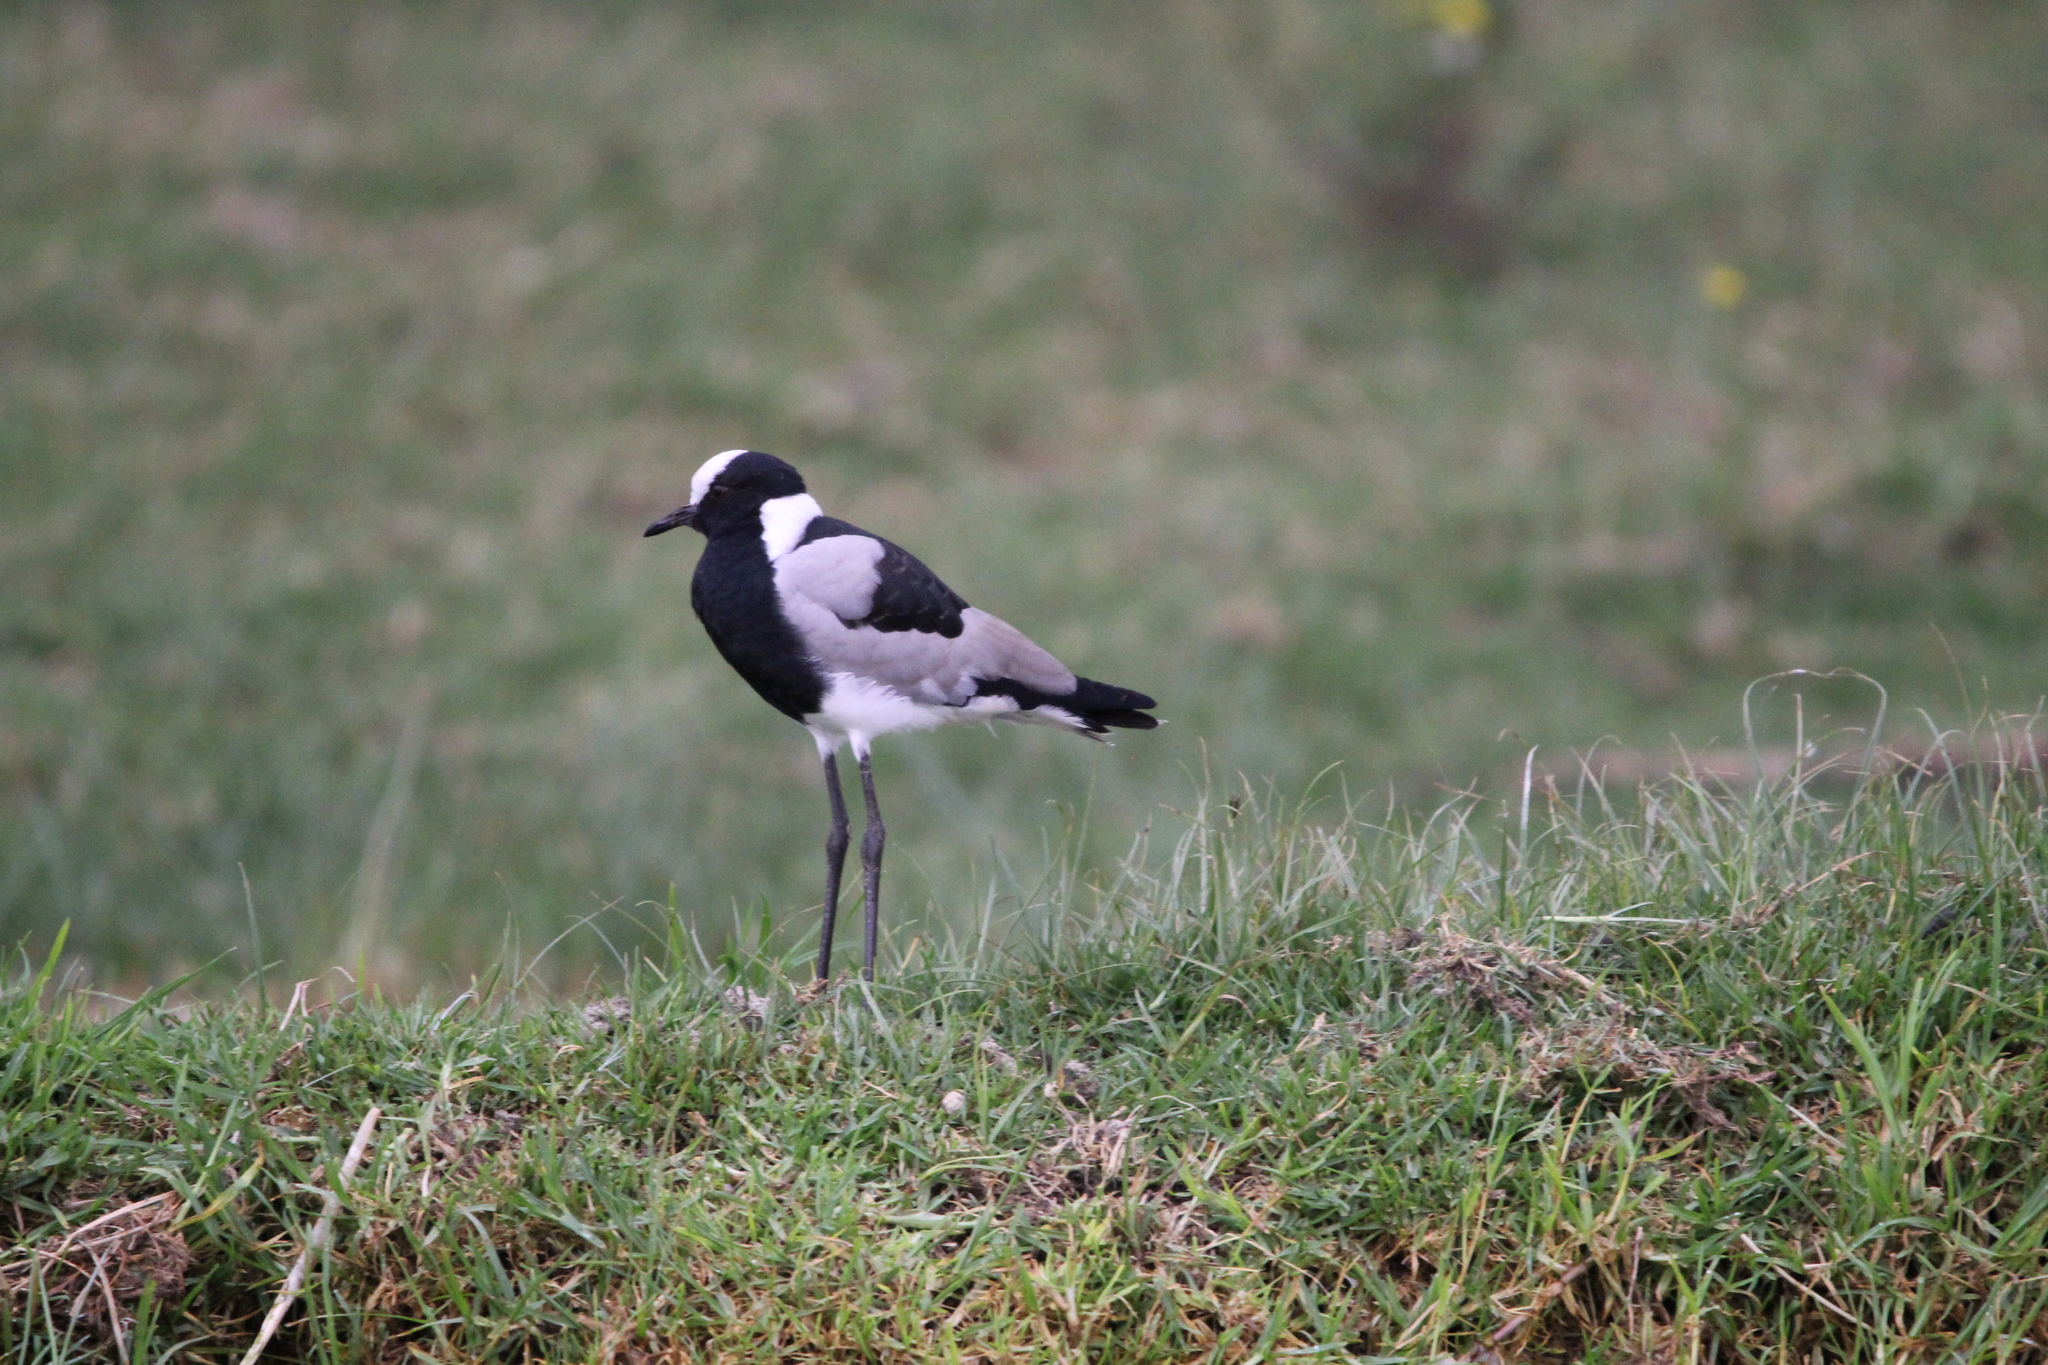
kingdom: Animalia
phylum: Chordata
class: Aves
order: Charadriiformes
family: Charadriidae
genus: Vanellus
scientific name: Vanellus armatus
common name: Blacksmith lapwing
